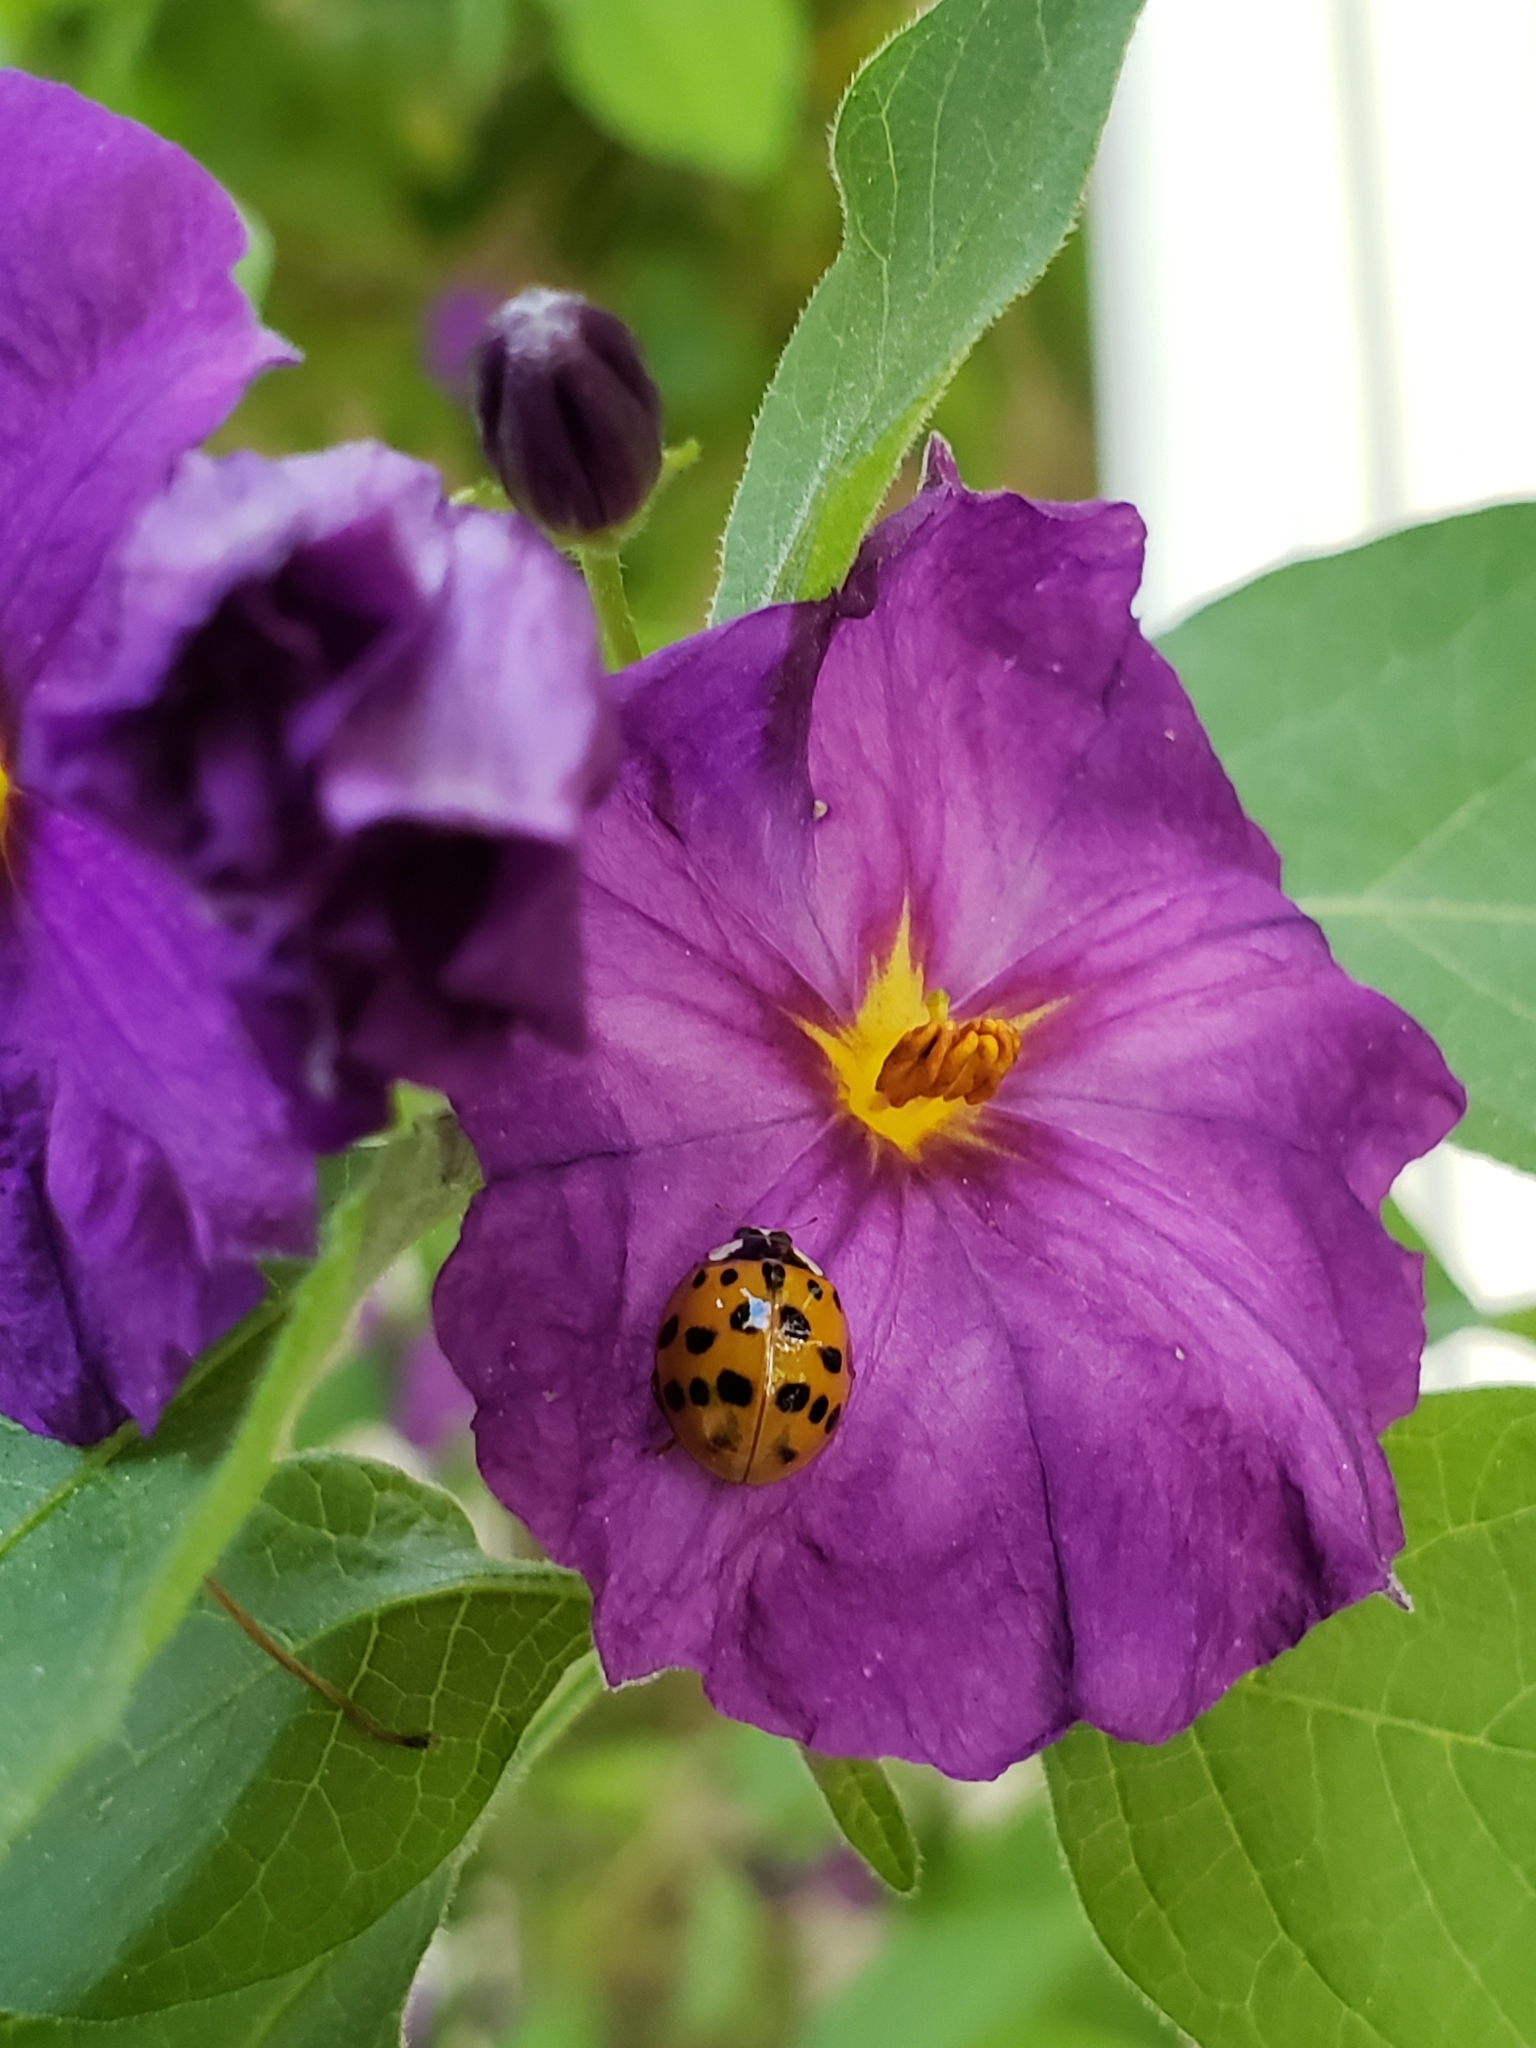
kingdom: Animalia
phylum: Arthropoda
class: Insecta
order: Coleoptera
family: Coccinellidae
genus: Harmonia
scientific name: Harmonia axyridis
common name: Harlequin ladybird
